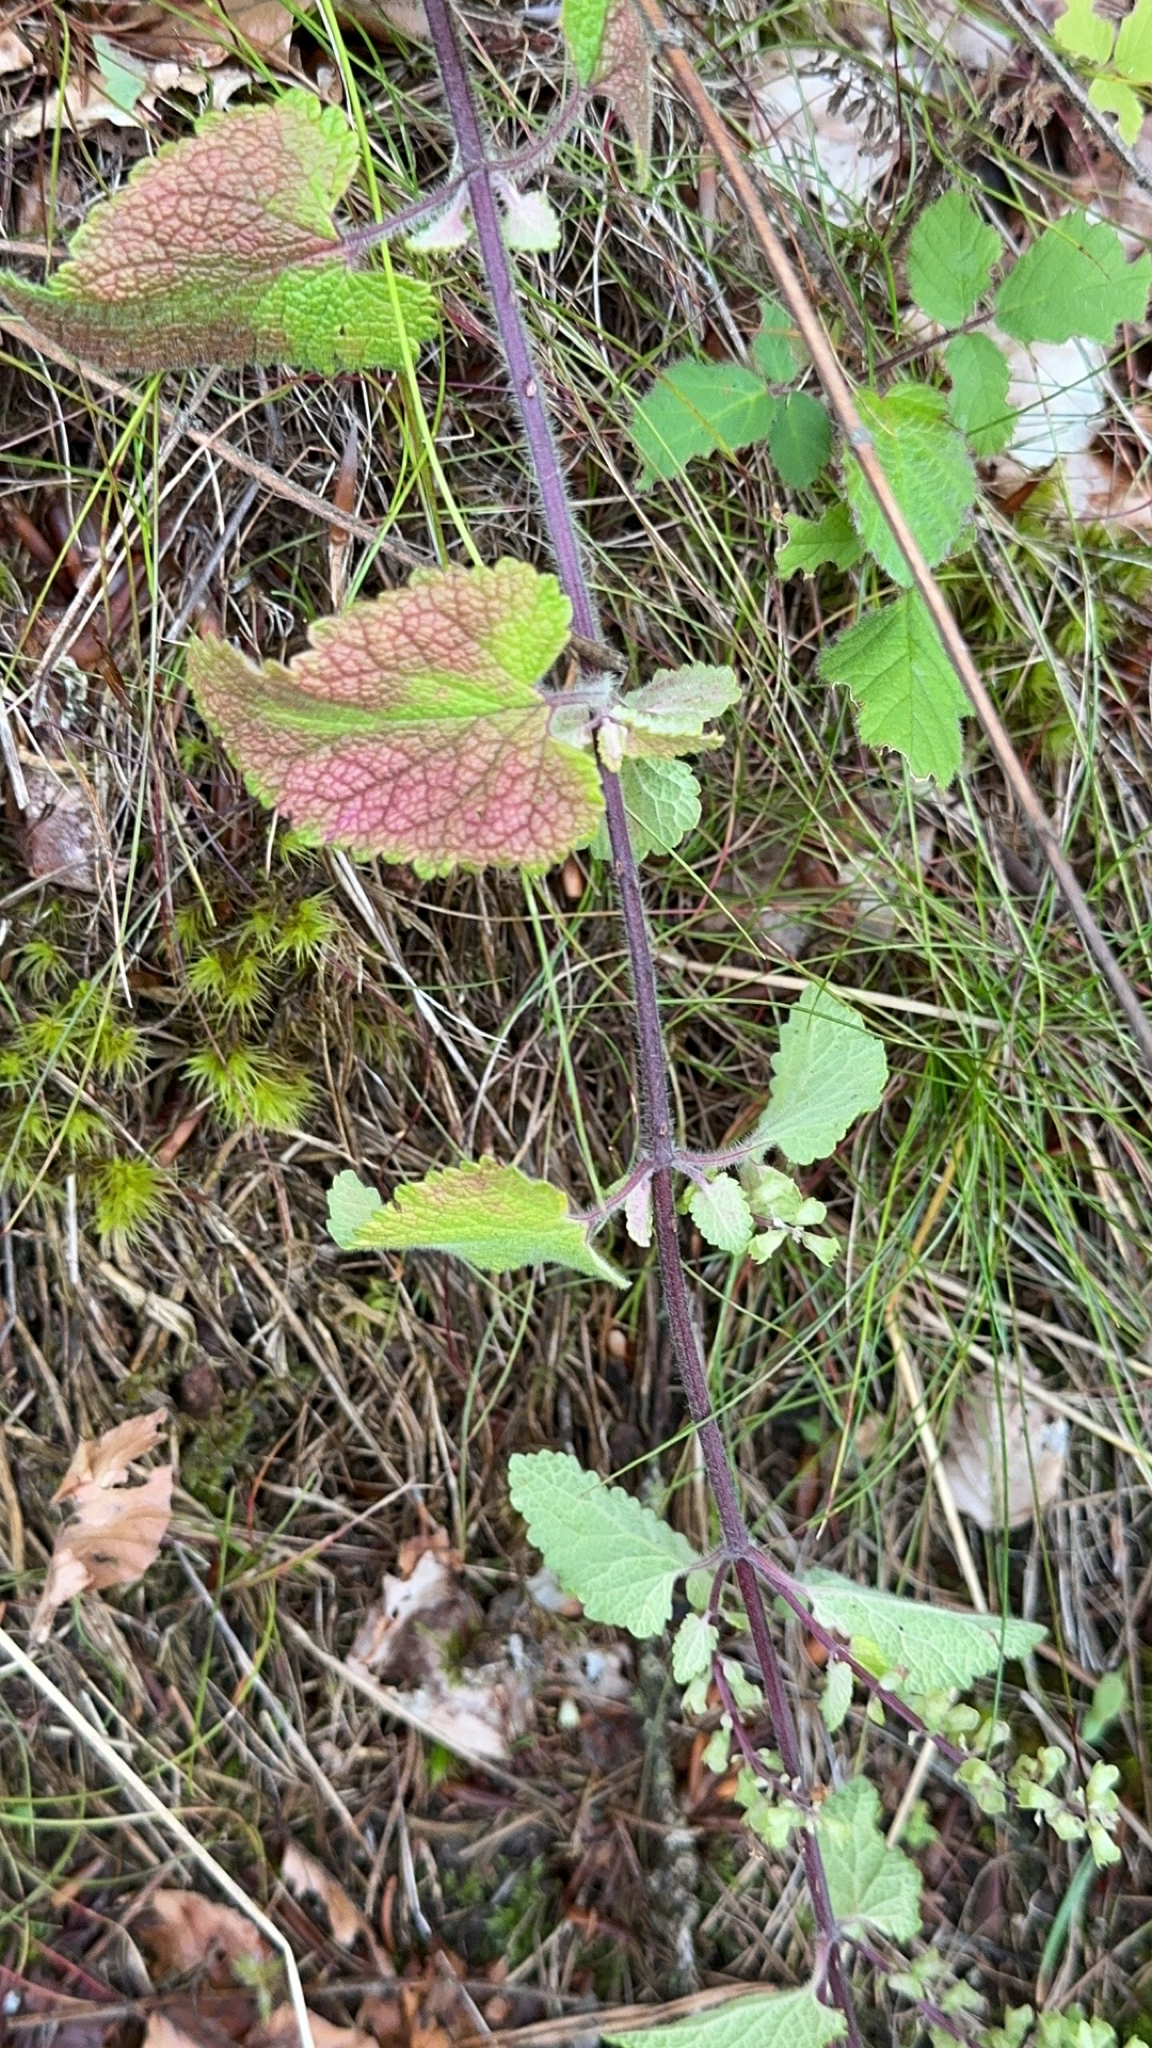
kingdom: Plantae
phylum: Tracheophyta
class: Magnoliopsida
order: Lamiales
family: Lamiaceae
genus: Teucrium
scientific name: Teucrium scorodonia
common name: Woodland germander
